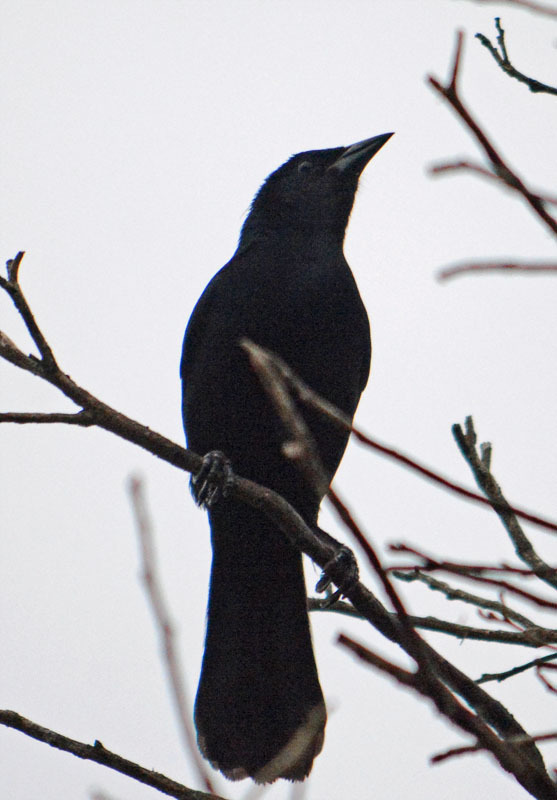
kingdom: Animalia
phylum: Chordata
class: Aves
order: Passeriformes
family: Icteridae
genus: Dives
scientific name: Dives dives
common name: Melodious blackbird
